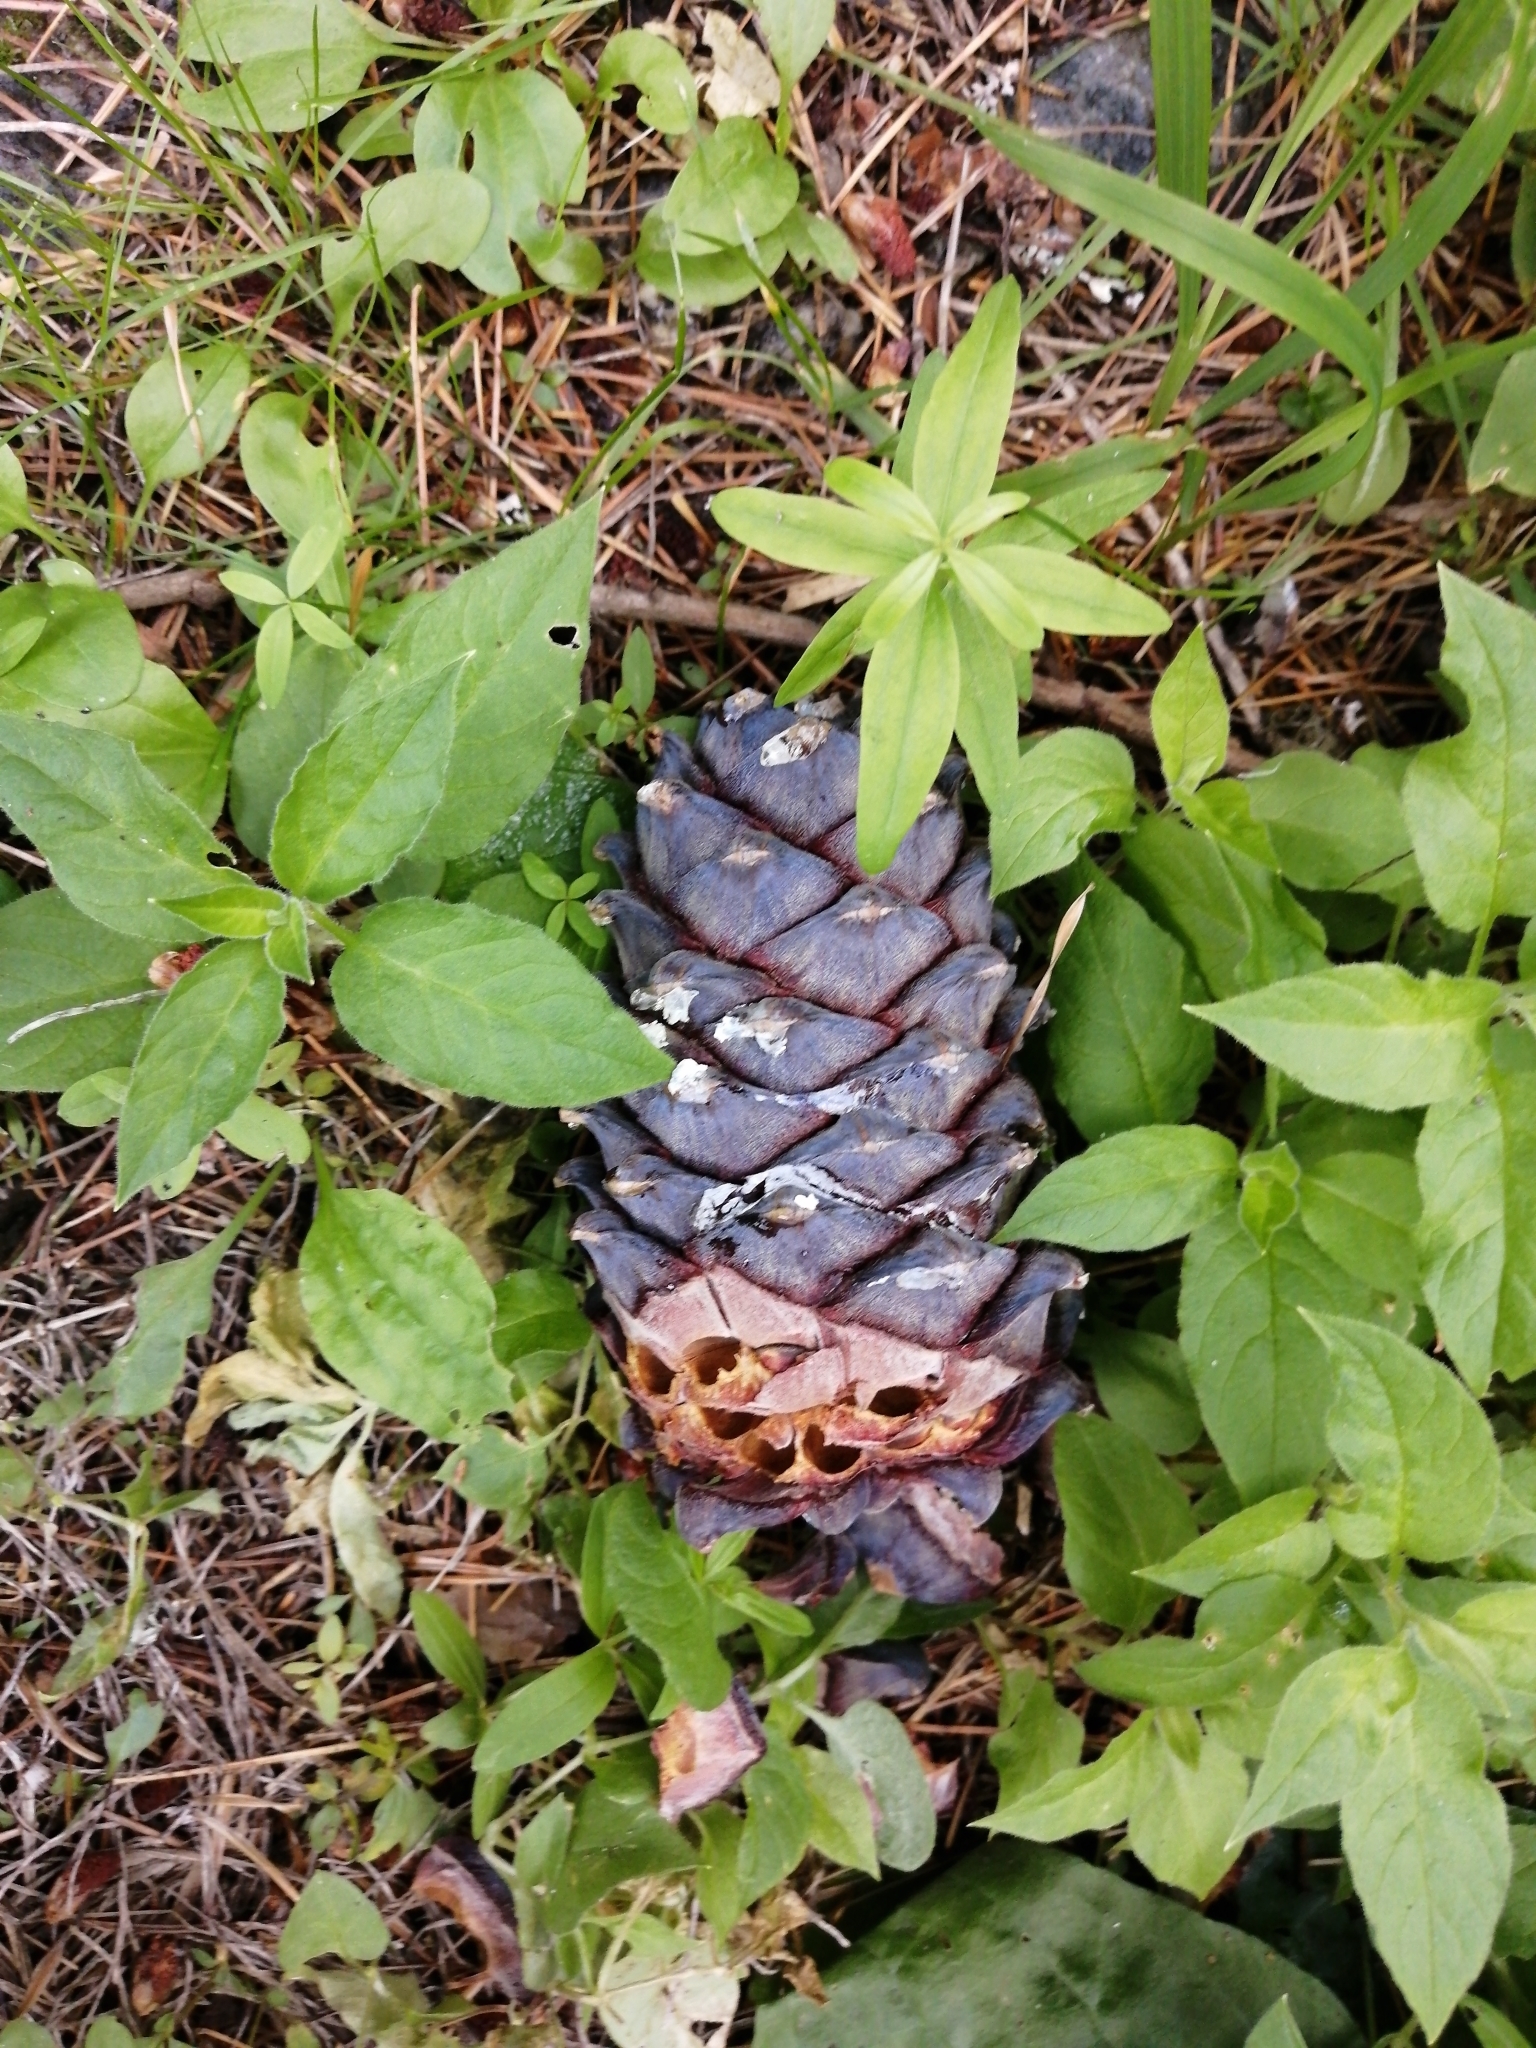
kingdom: Plantae
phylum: Tracheophyta
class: Pinopsida
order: Pinales
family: Pinaceae
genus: Pinus
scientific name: Pinus sibirica
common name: Siberian pine
